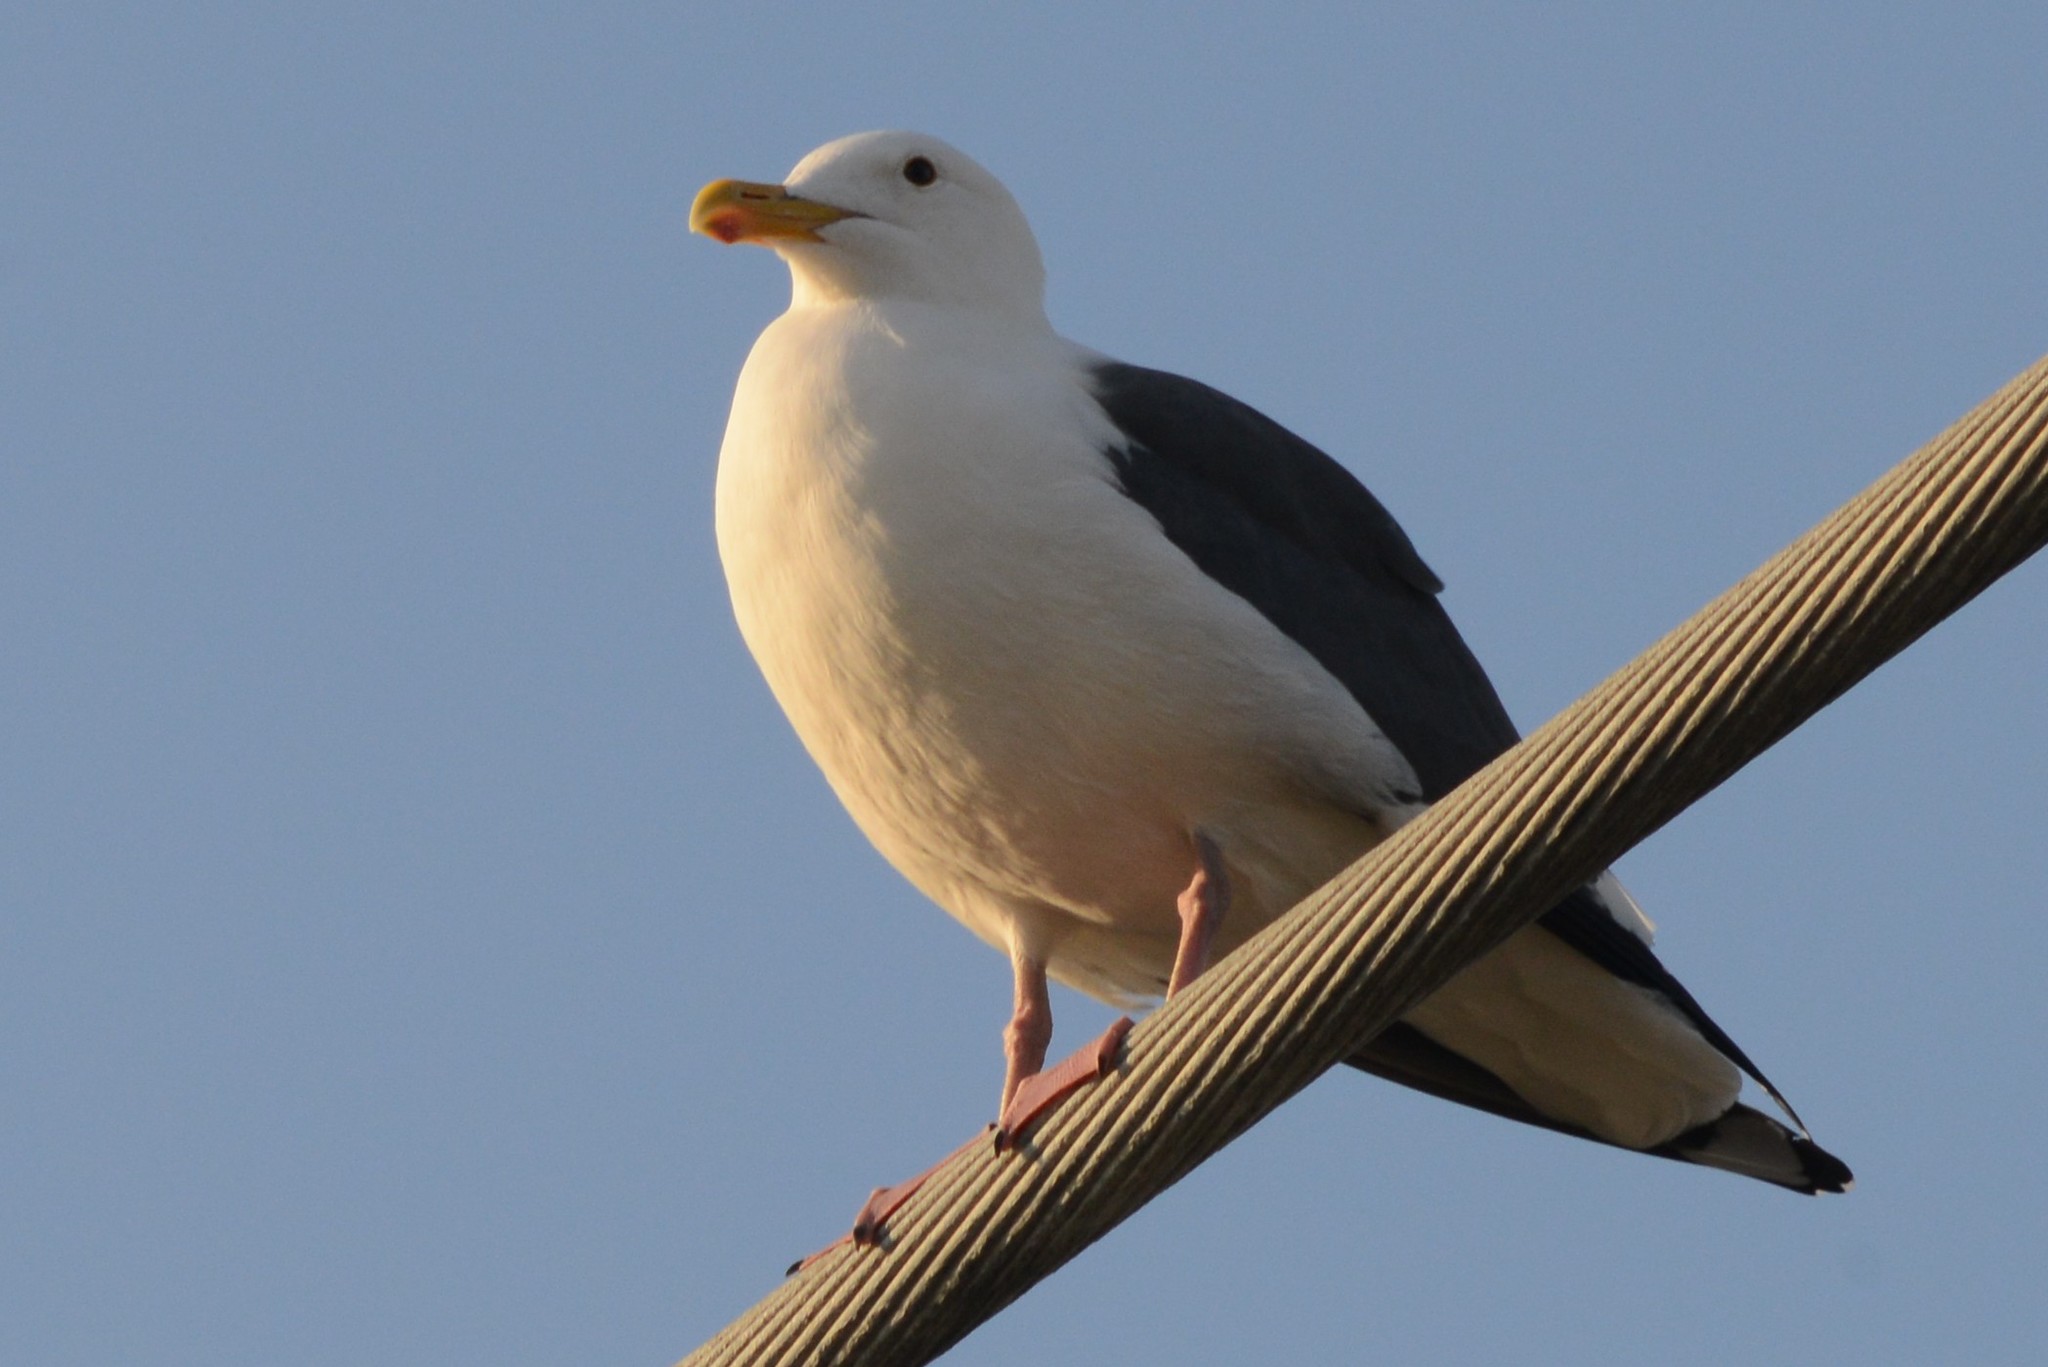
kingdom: Animalia
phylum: Chordata
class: Aves
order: Charadriiformes
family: Laridae
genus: Larus
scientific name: Larus occidentalis
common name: Western gull
